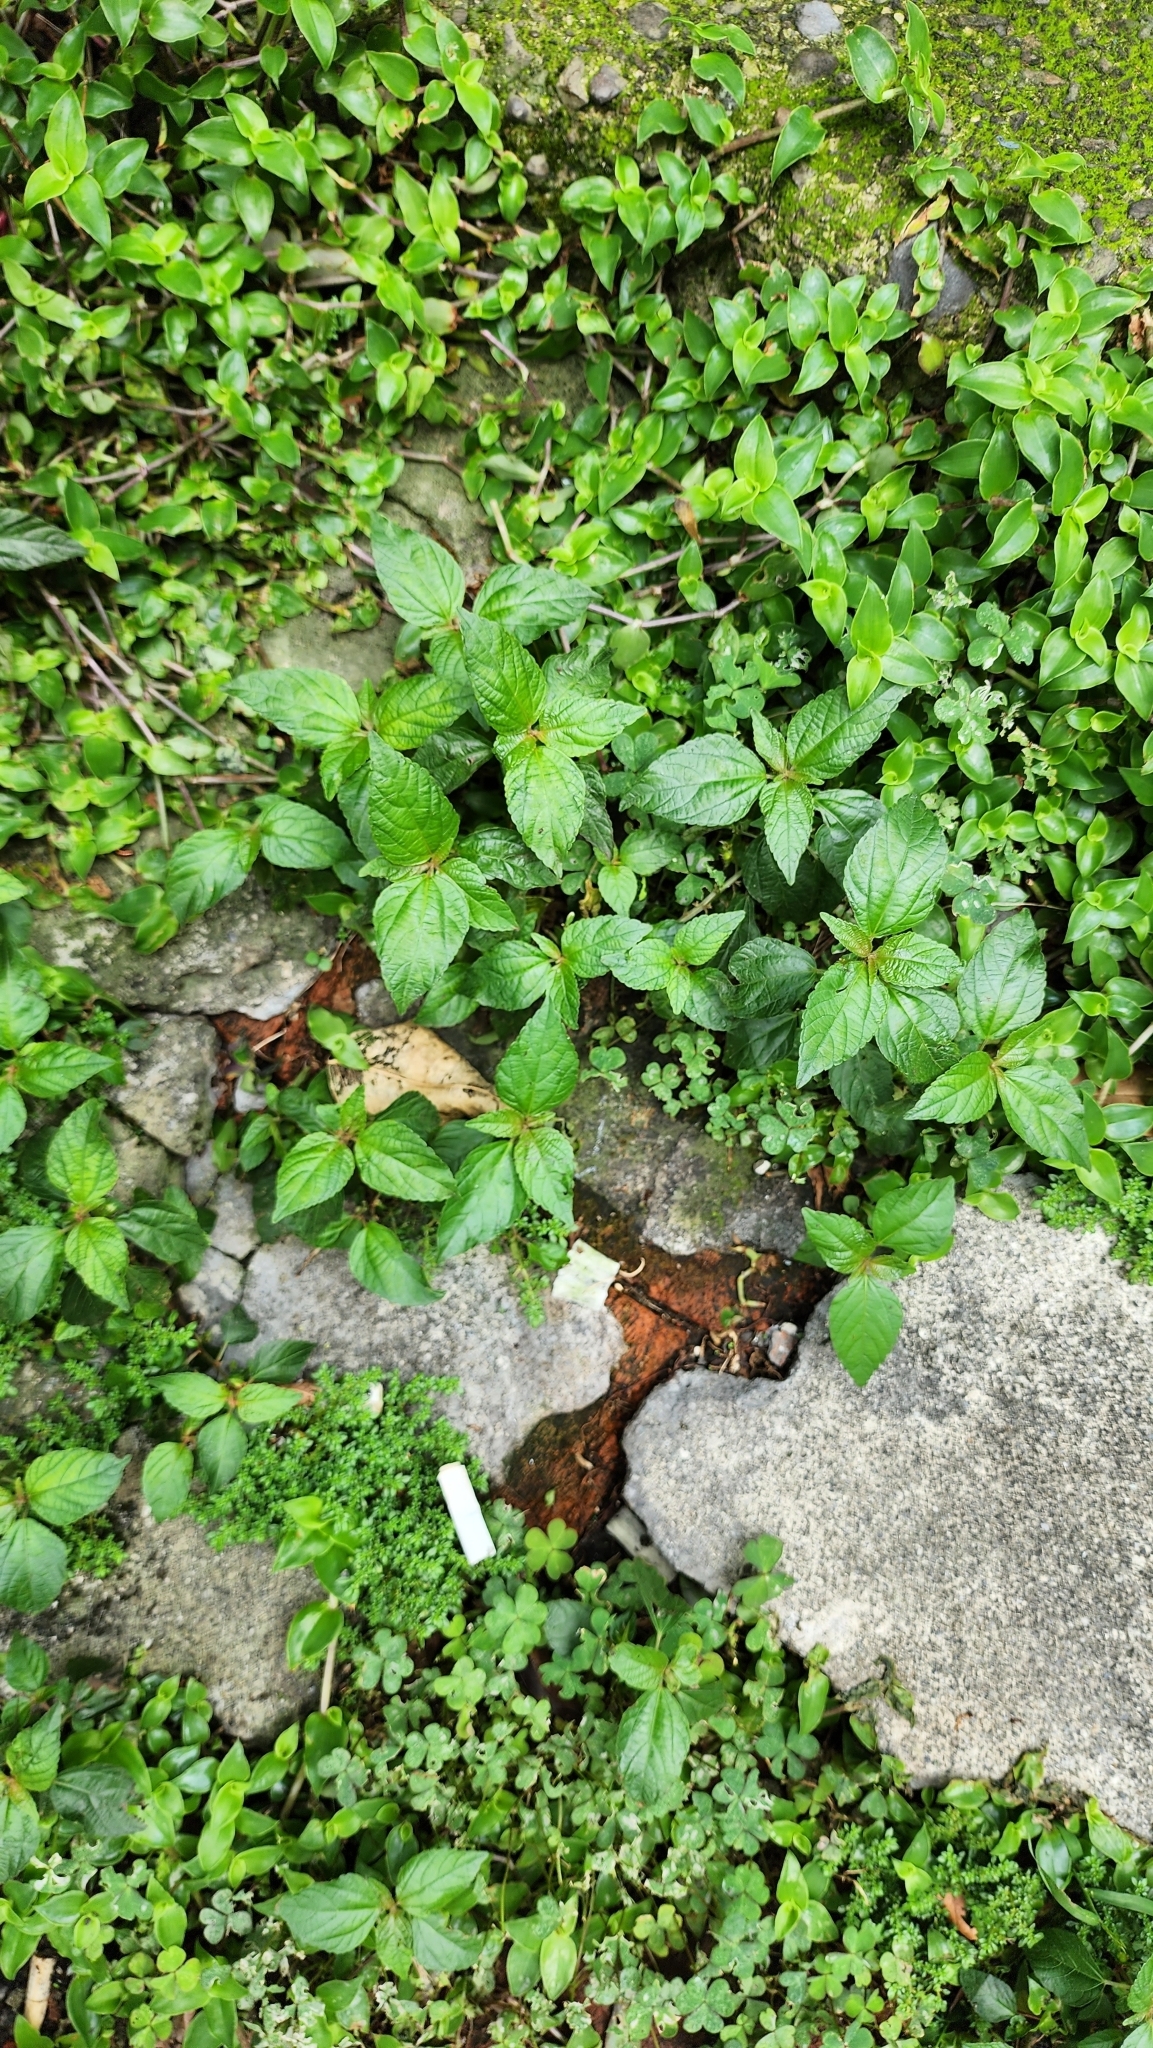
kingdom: Plantae
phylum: Tracheophyta
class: Magnoliopsida
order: Malpighiales
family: Euphorbiaceae
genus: Acalypha
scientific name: Acalypha australis
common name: Asian copperleaf
